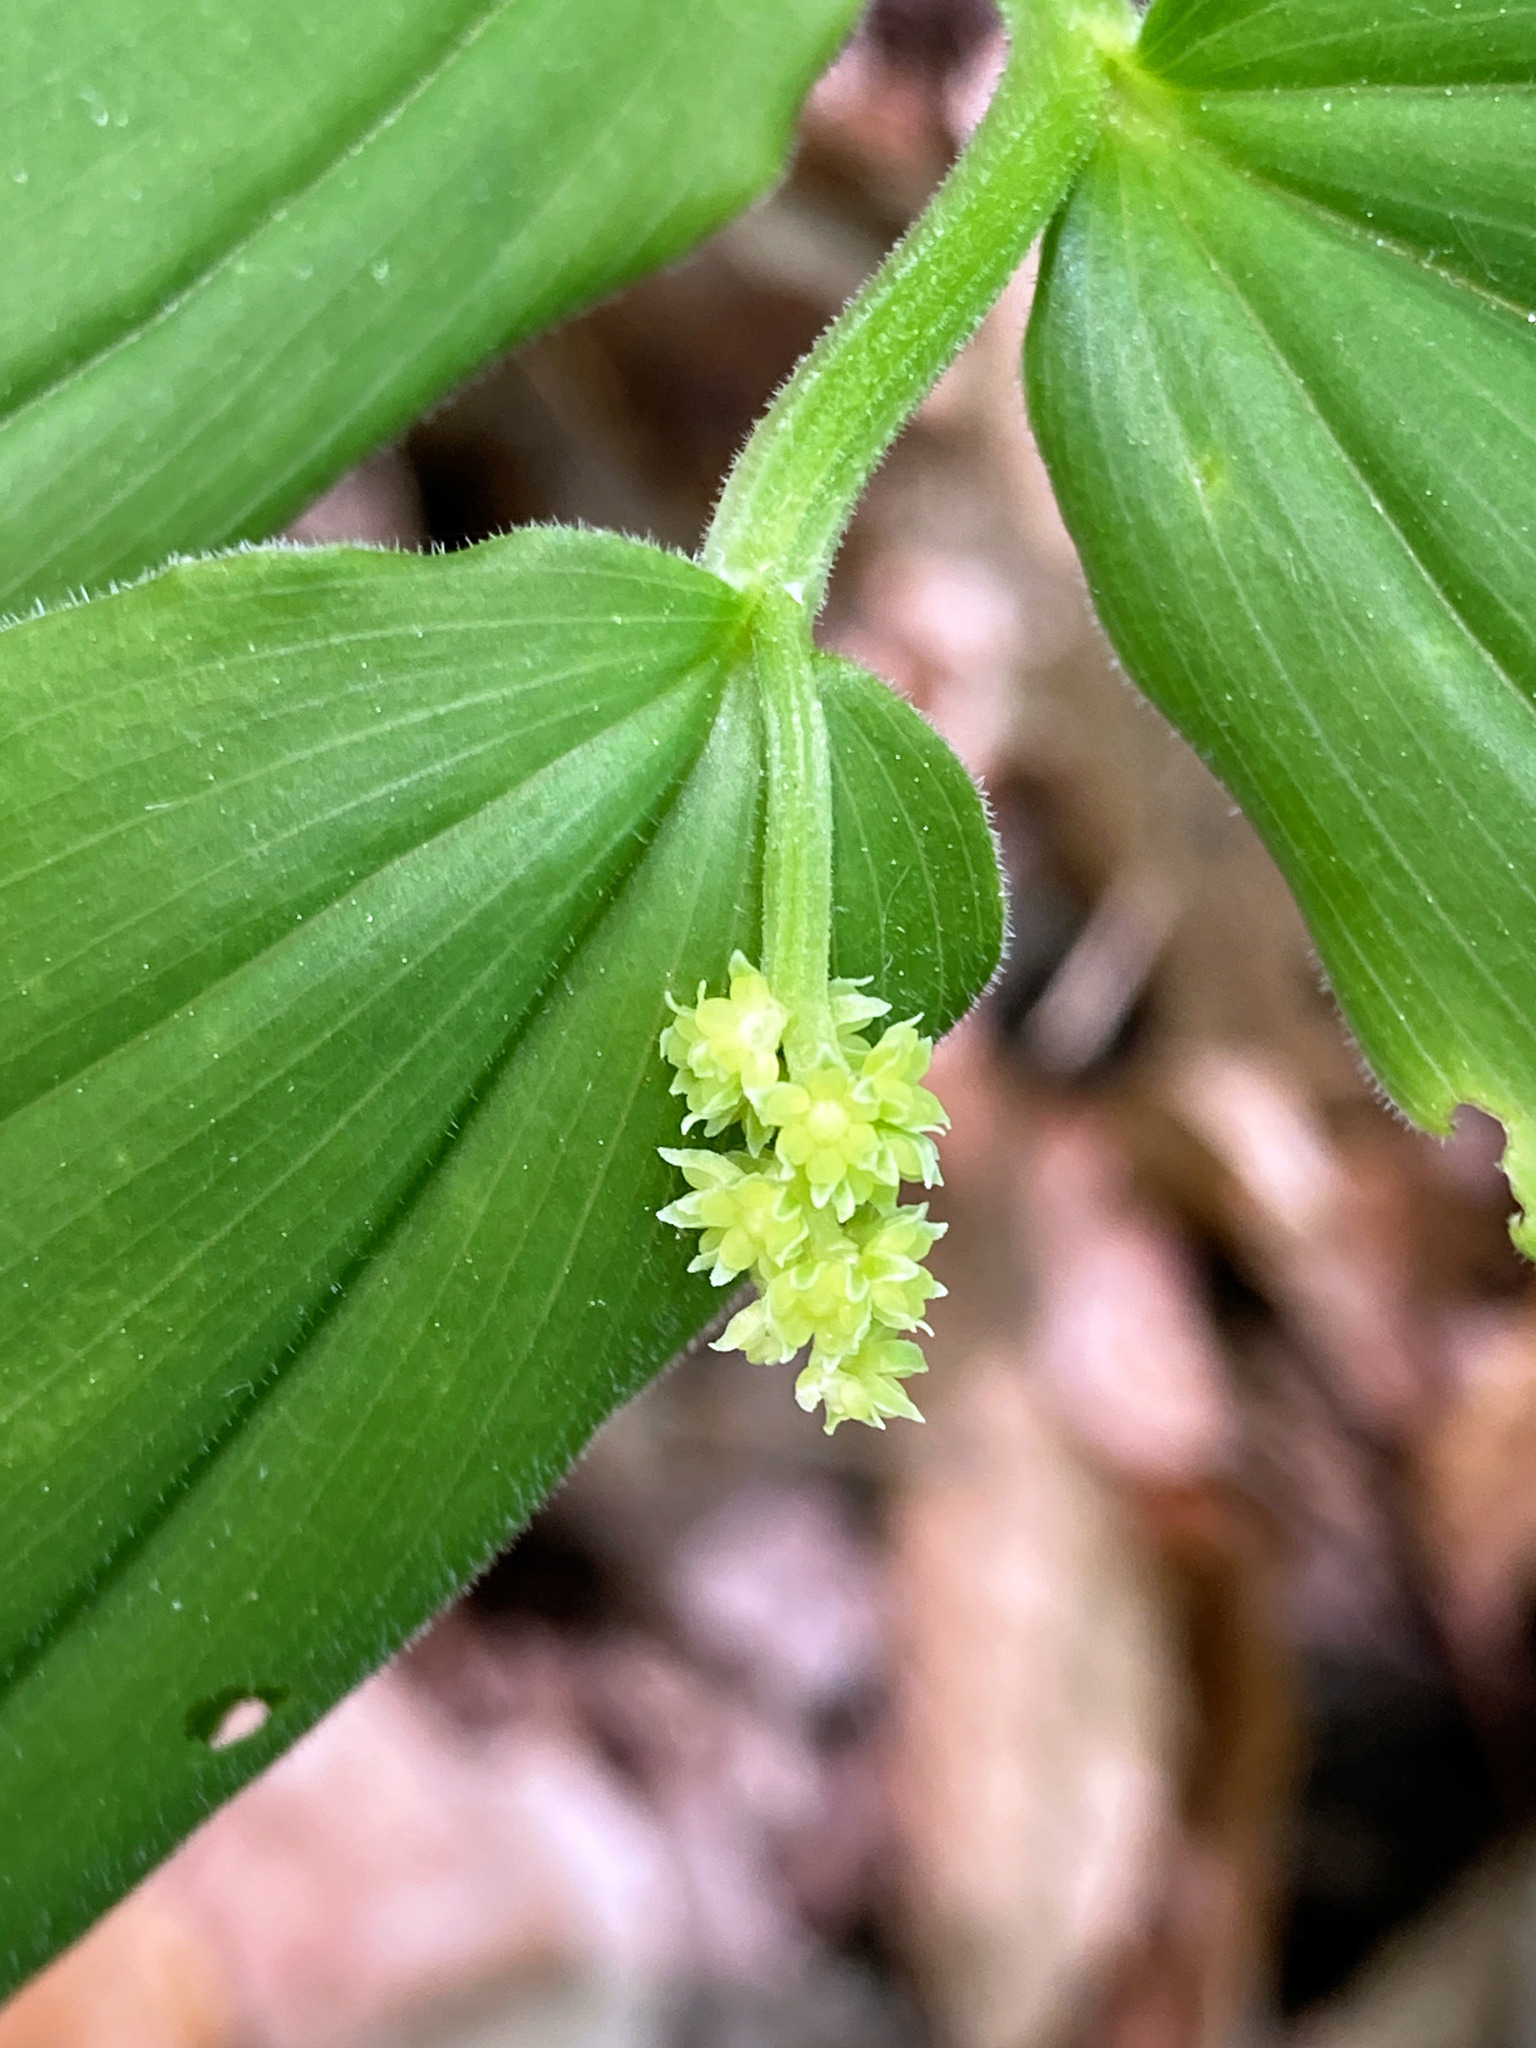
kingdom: Plantae
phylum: Tracheophyta
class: Liliopsida
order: Asparagales
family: Asparagaceae
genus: Maianthemum
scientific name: Maianthemum racemosum
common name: False spikenard
